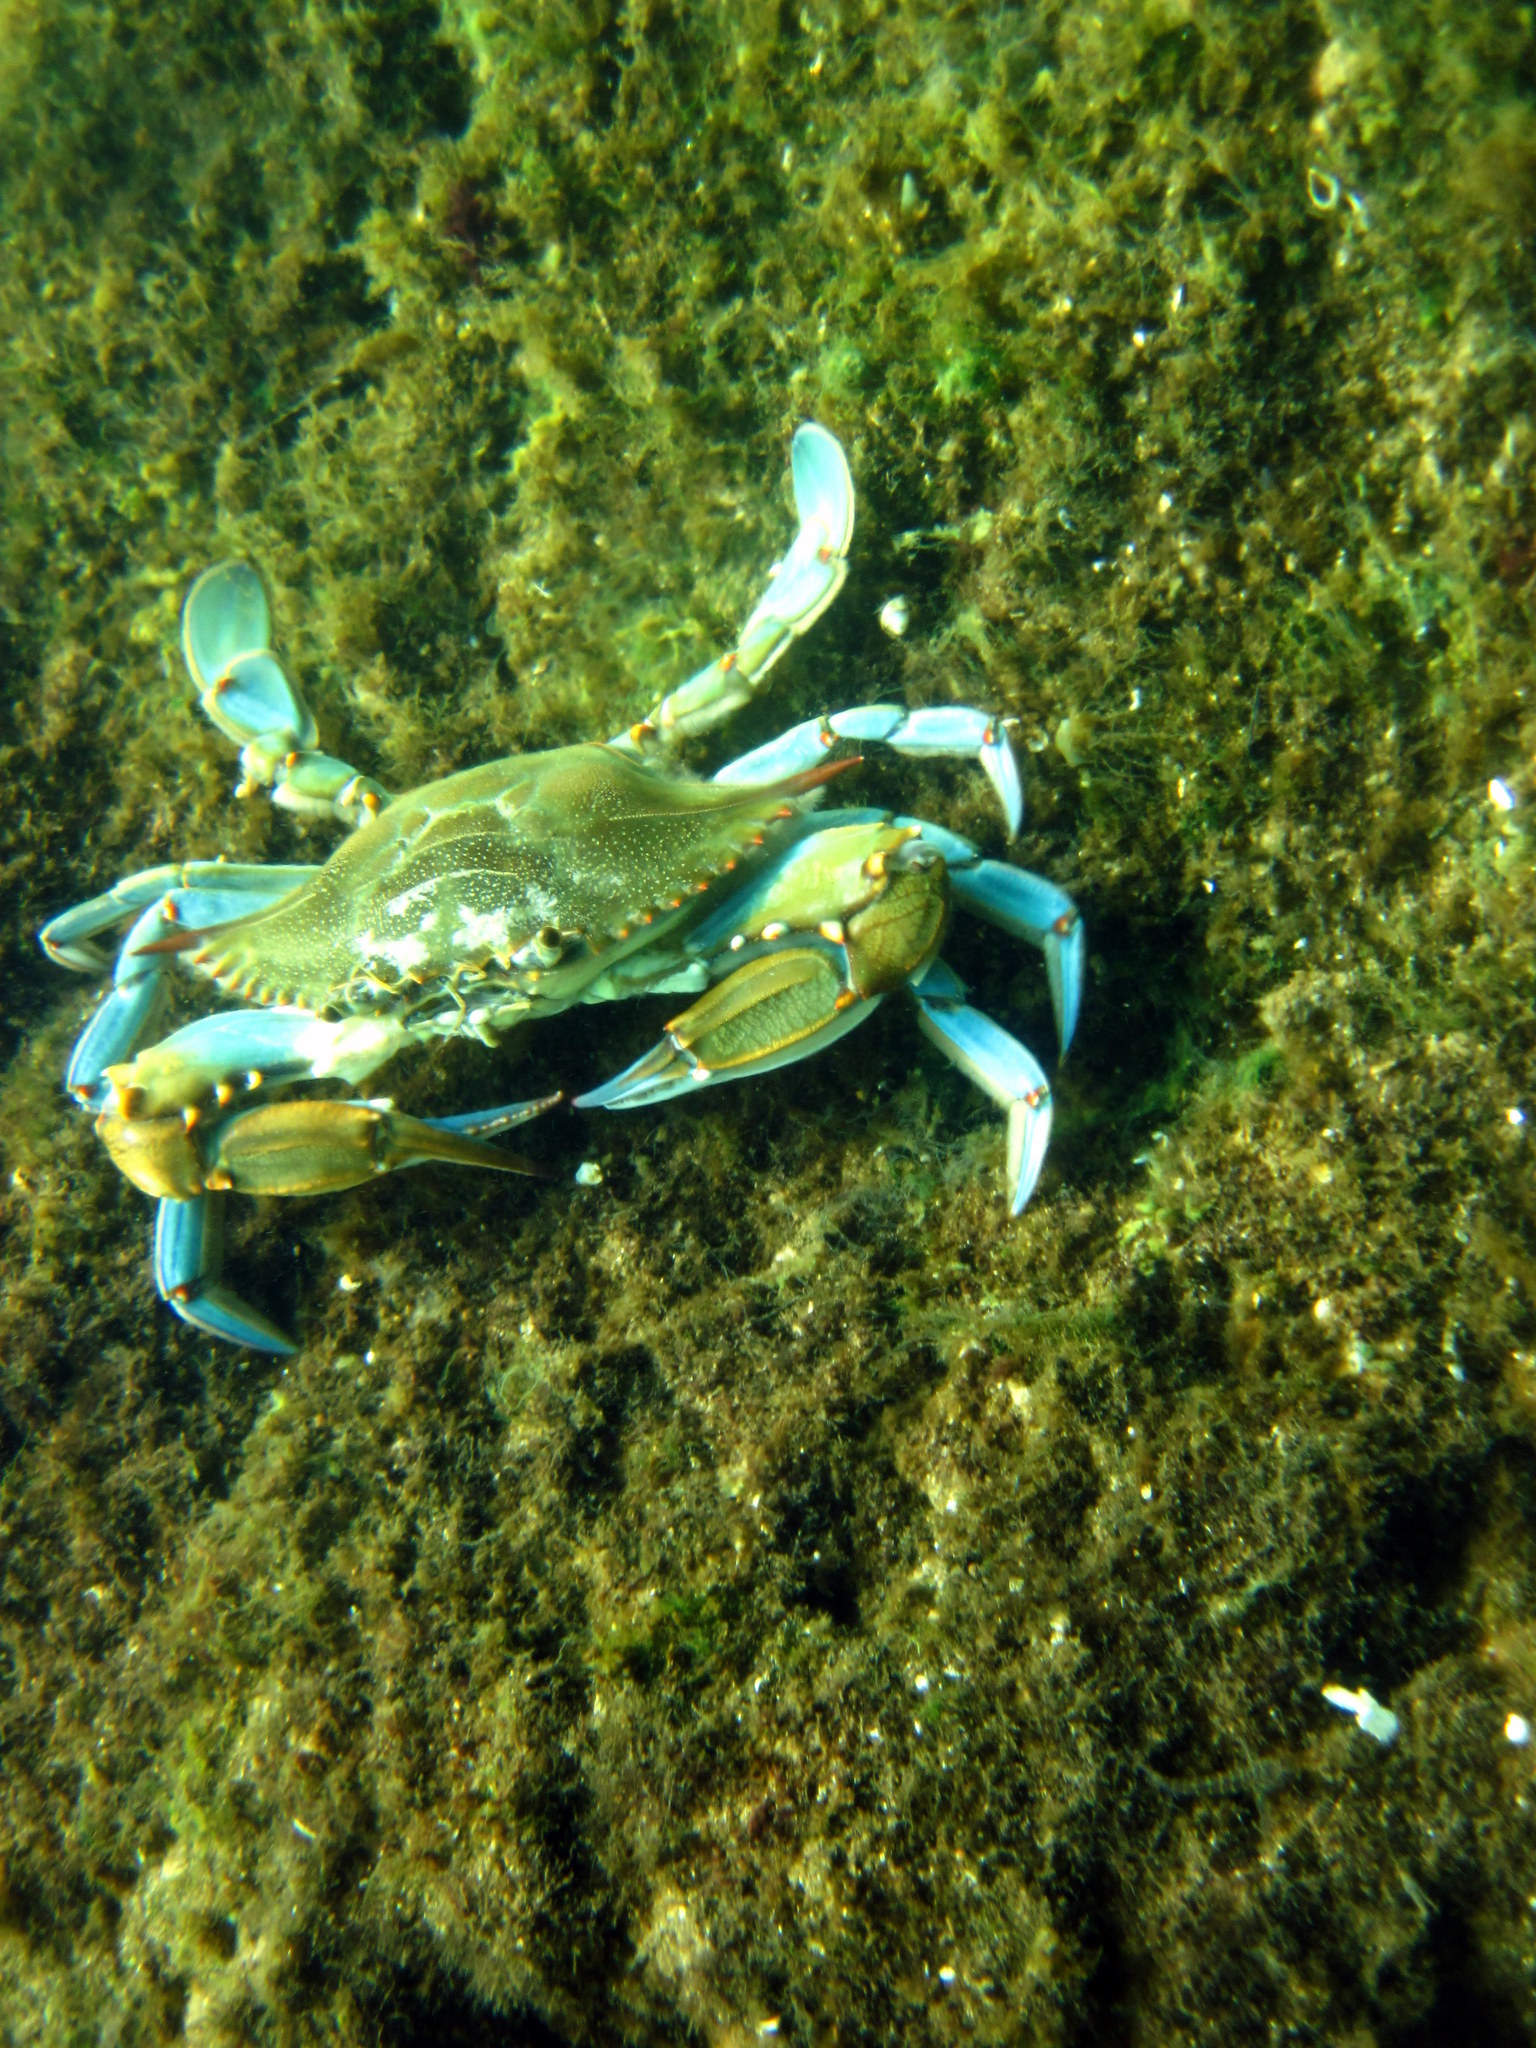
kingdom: Animalia
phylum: Arthropoda
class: Malacostraca
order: Decapoda
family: Portunidae
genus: Callinectes
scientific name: Callinectes sapidus
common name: Blue crab
